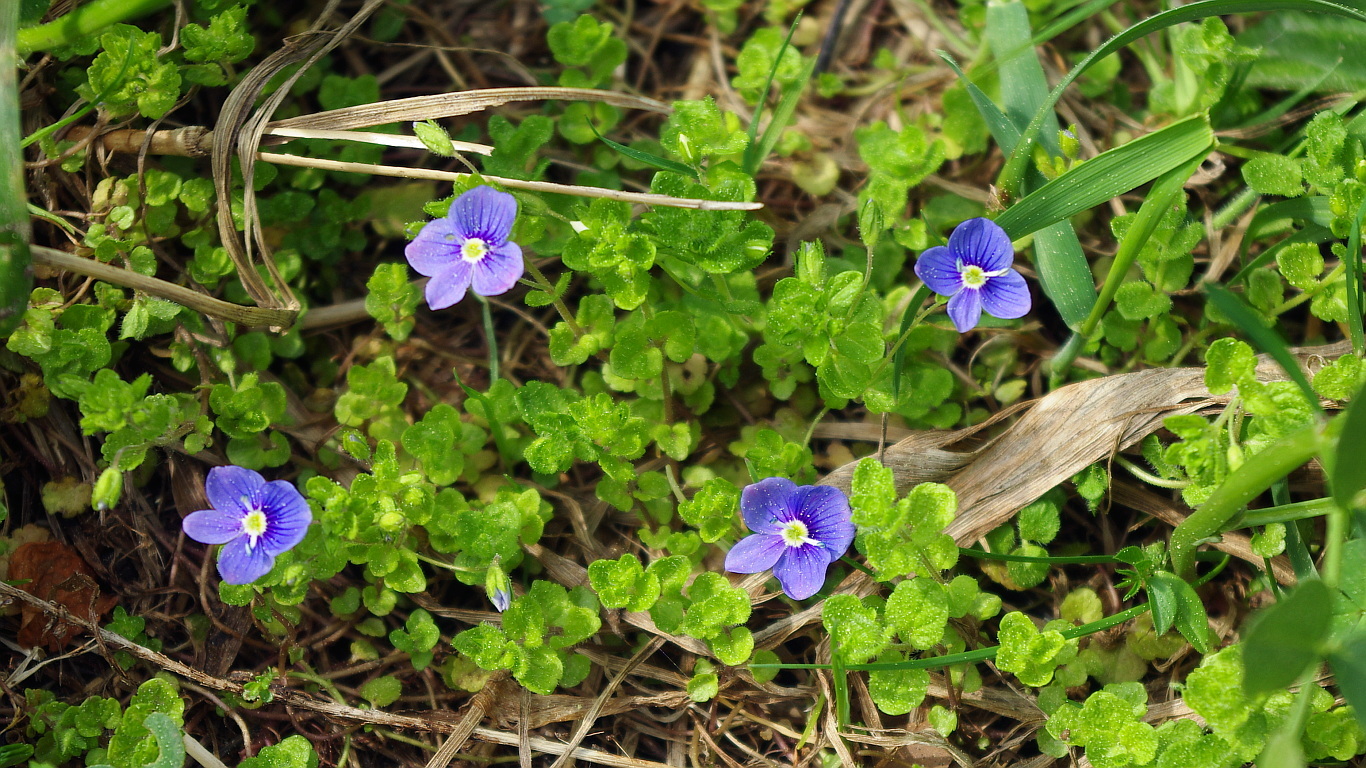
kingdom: Plantae
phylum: Tracheophyta
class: Magnoliopsida
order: Lamiales
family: Plantaginaceae
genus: Veronica
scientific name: Veronica filiformis
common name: Slender speedwell
